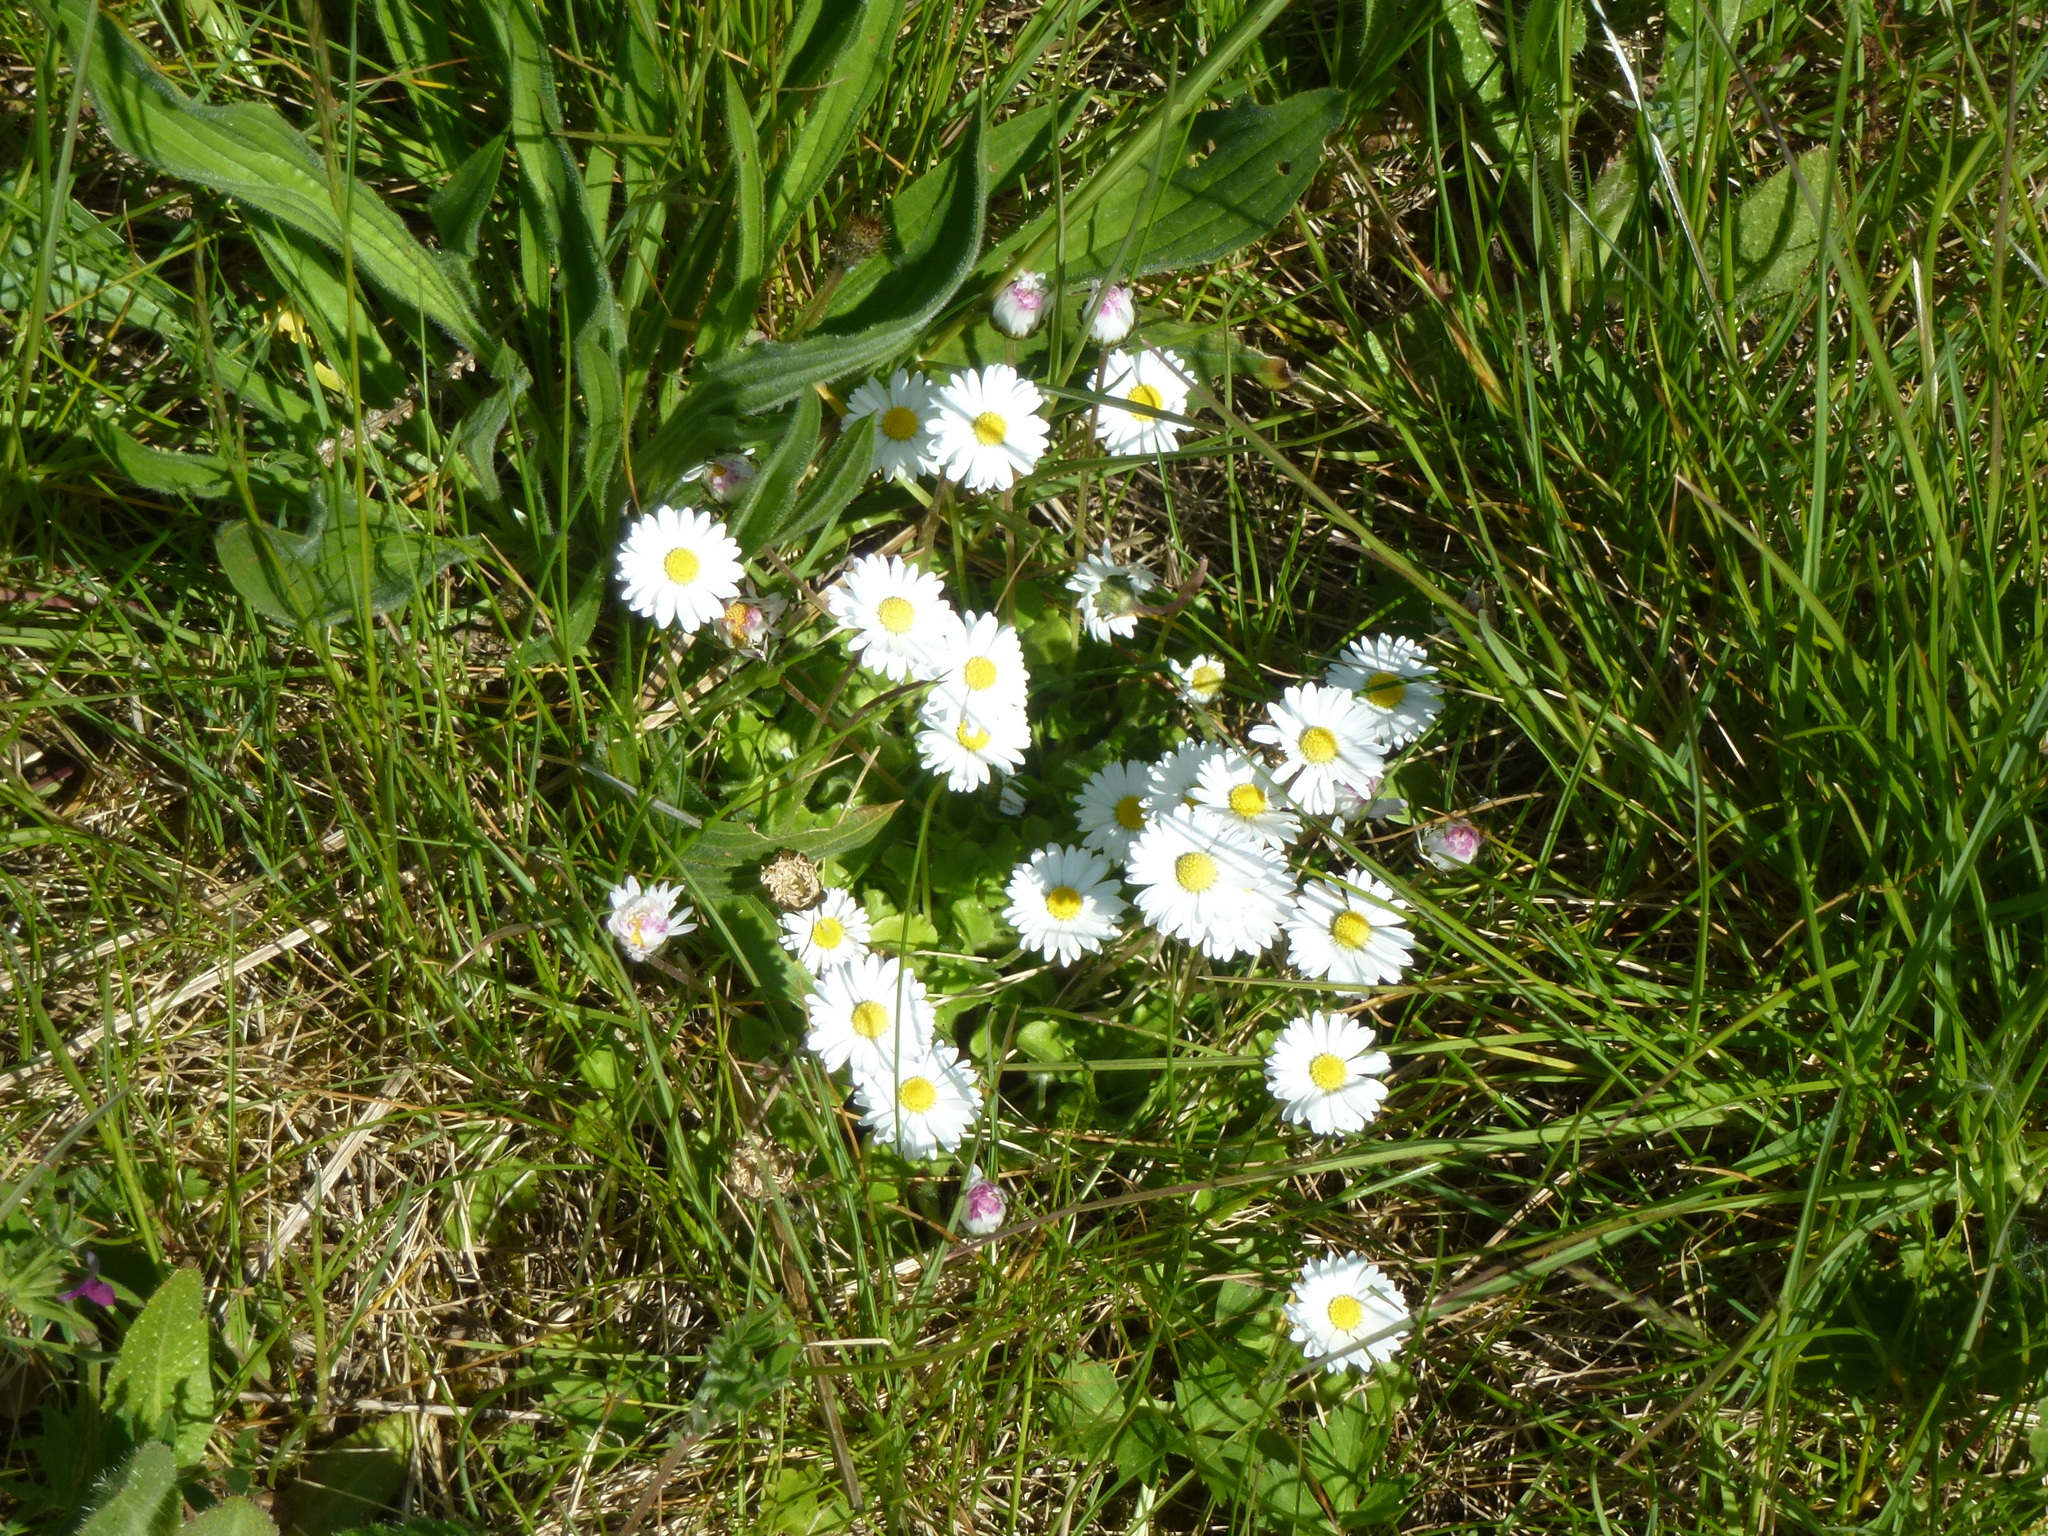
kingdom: Plantae
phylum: Tracheophyta
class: Magnoliopsida
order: Asterales
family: Asteraceae
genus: Bellis
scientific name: Bellis perennis
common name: Lawndaisy
